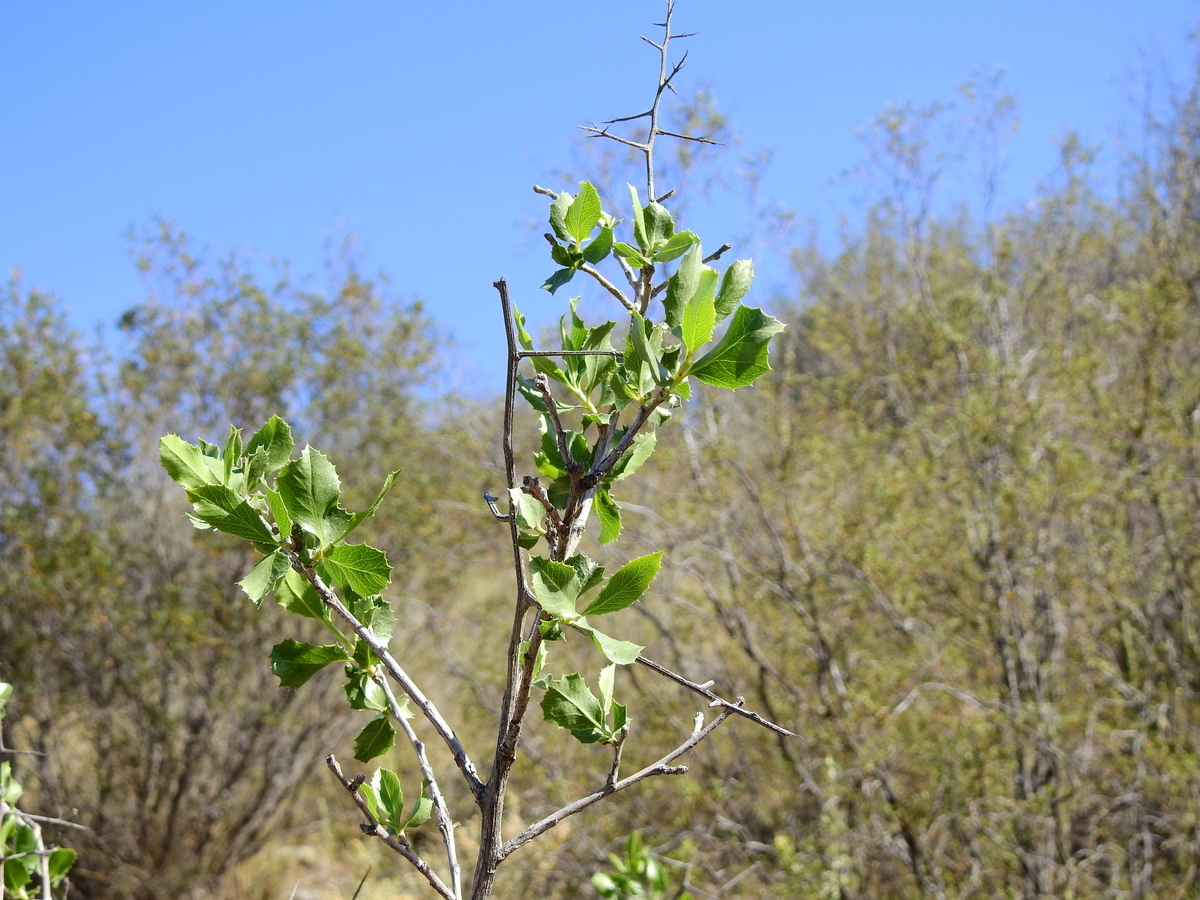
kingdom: Plantae
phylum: Tracheophyta
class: Magnoliopsida
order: Asterales
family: Asteraceae
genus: Proustia
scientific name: Proustia cuneifolia
